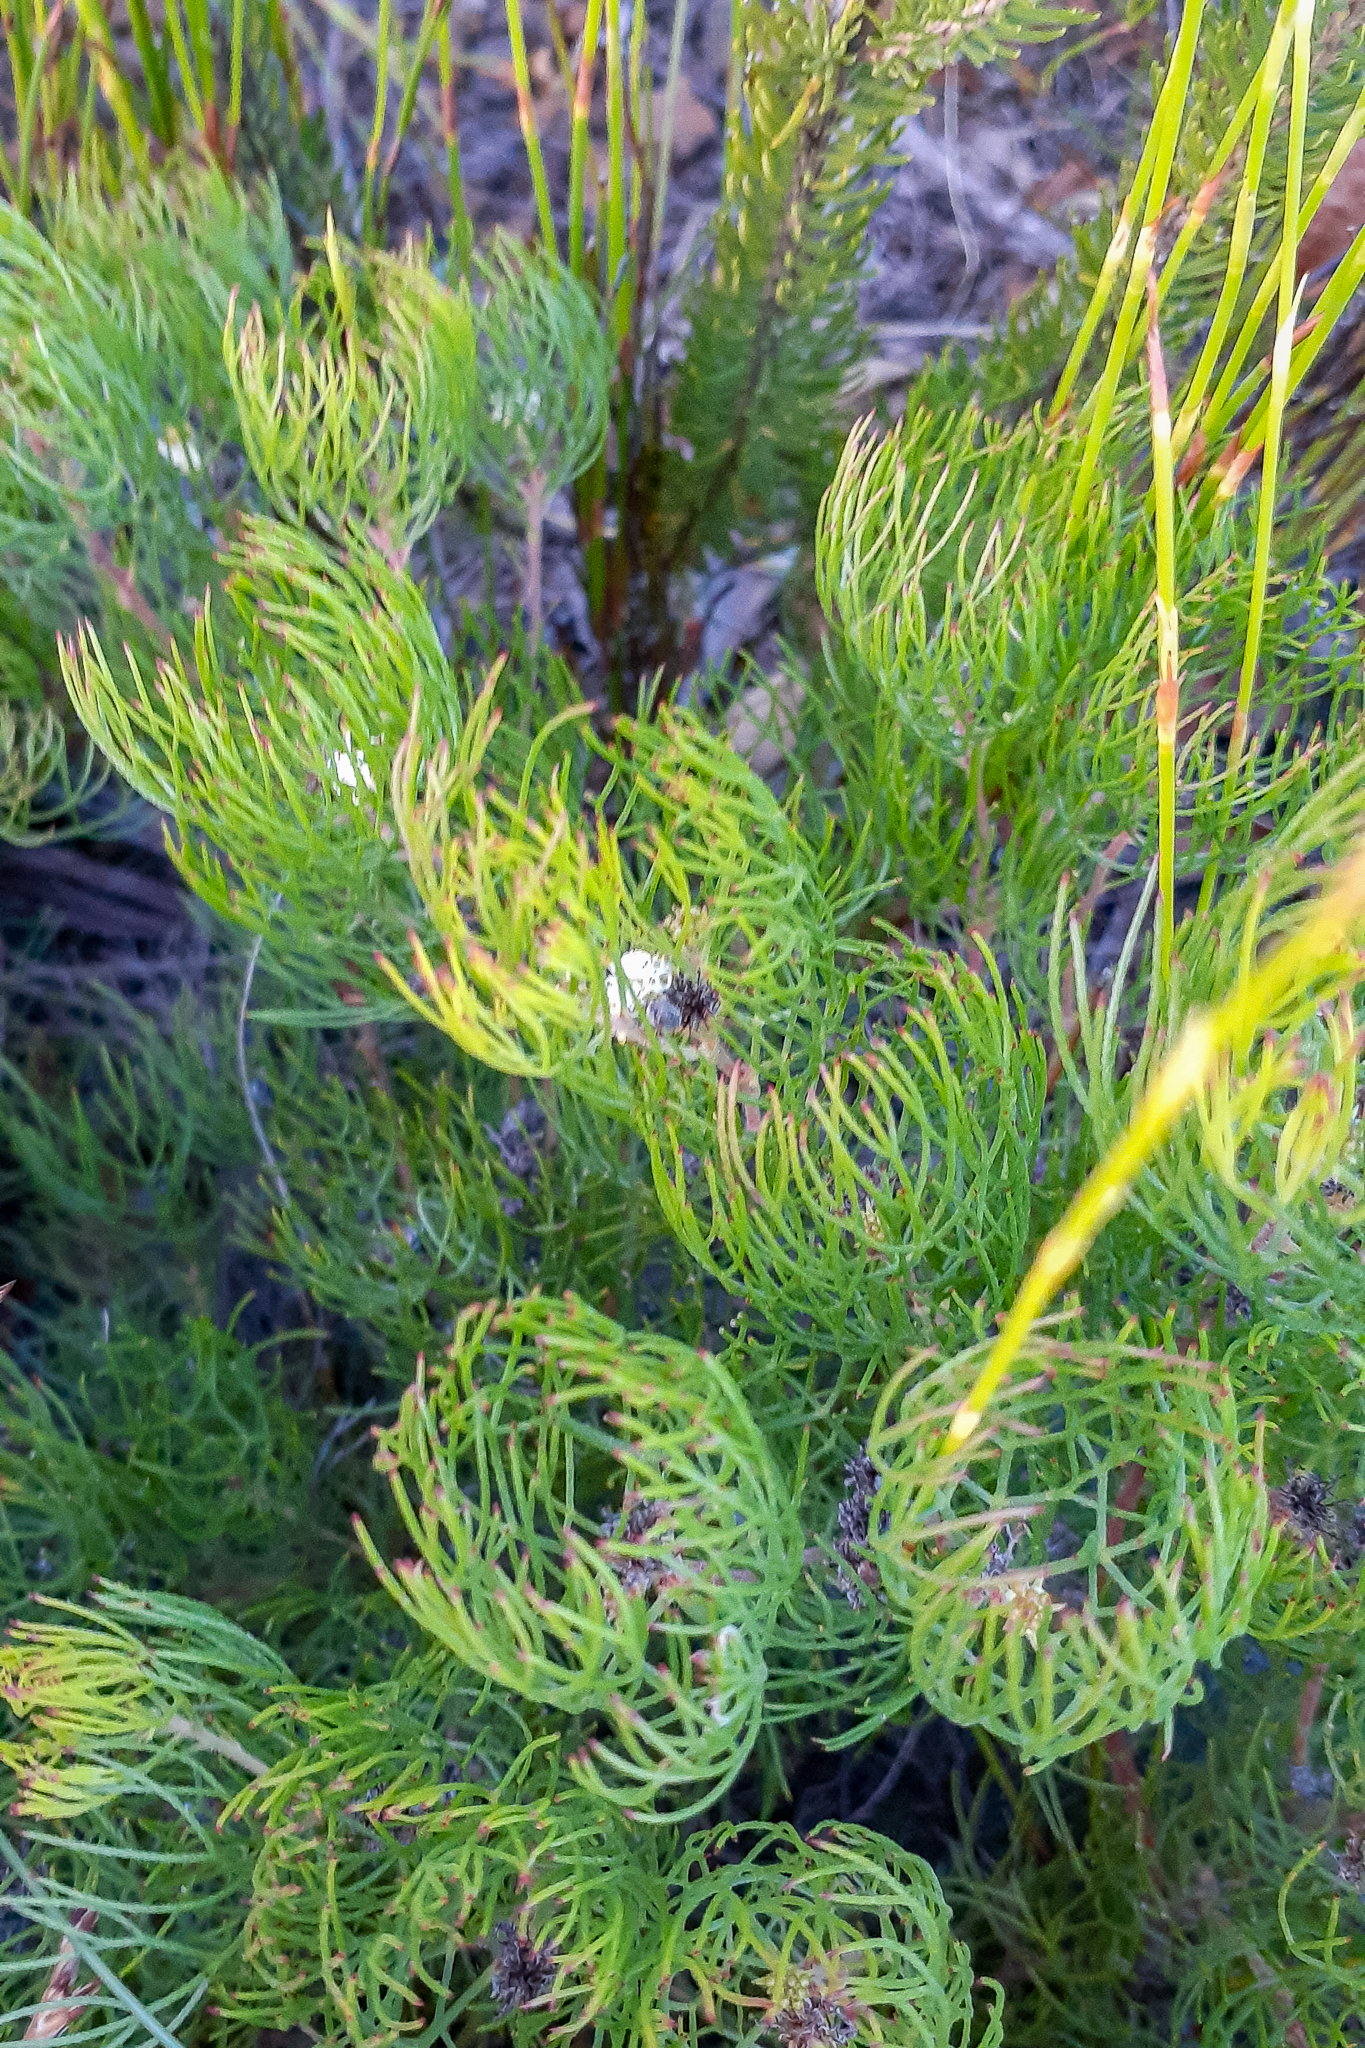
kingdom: Plantae
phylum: Tracheophyta
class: Magnoliopsida
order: Proteales
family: Proteaceae
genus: Serruria
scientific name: Serruria inconspicua
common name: Cryptic spiderhead
